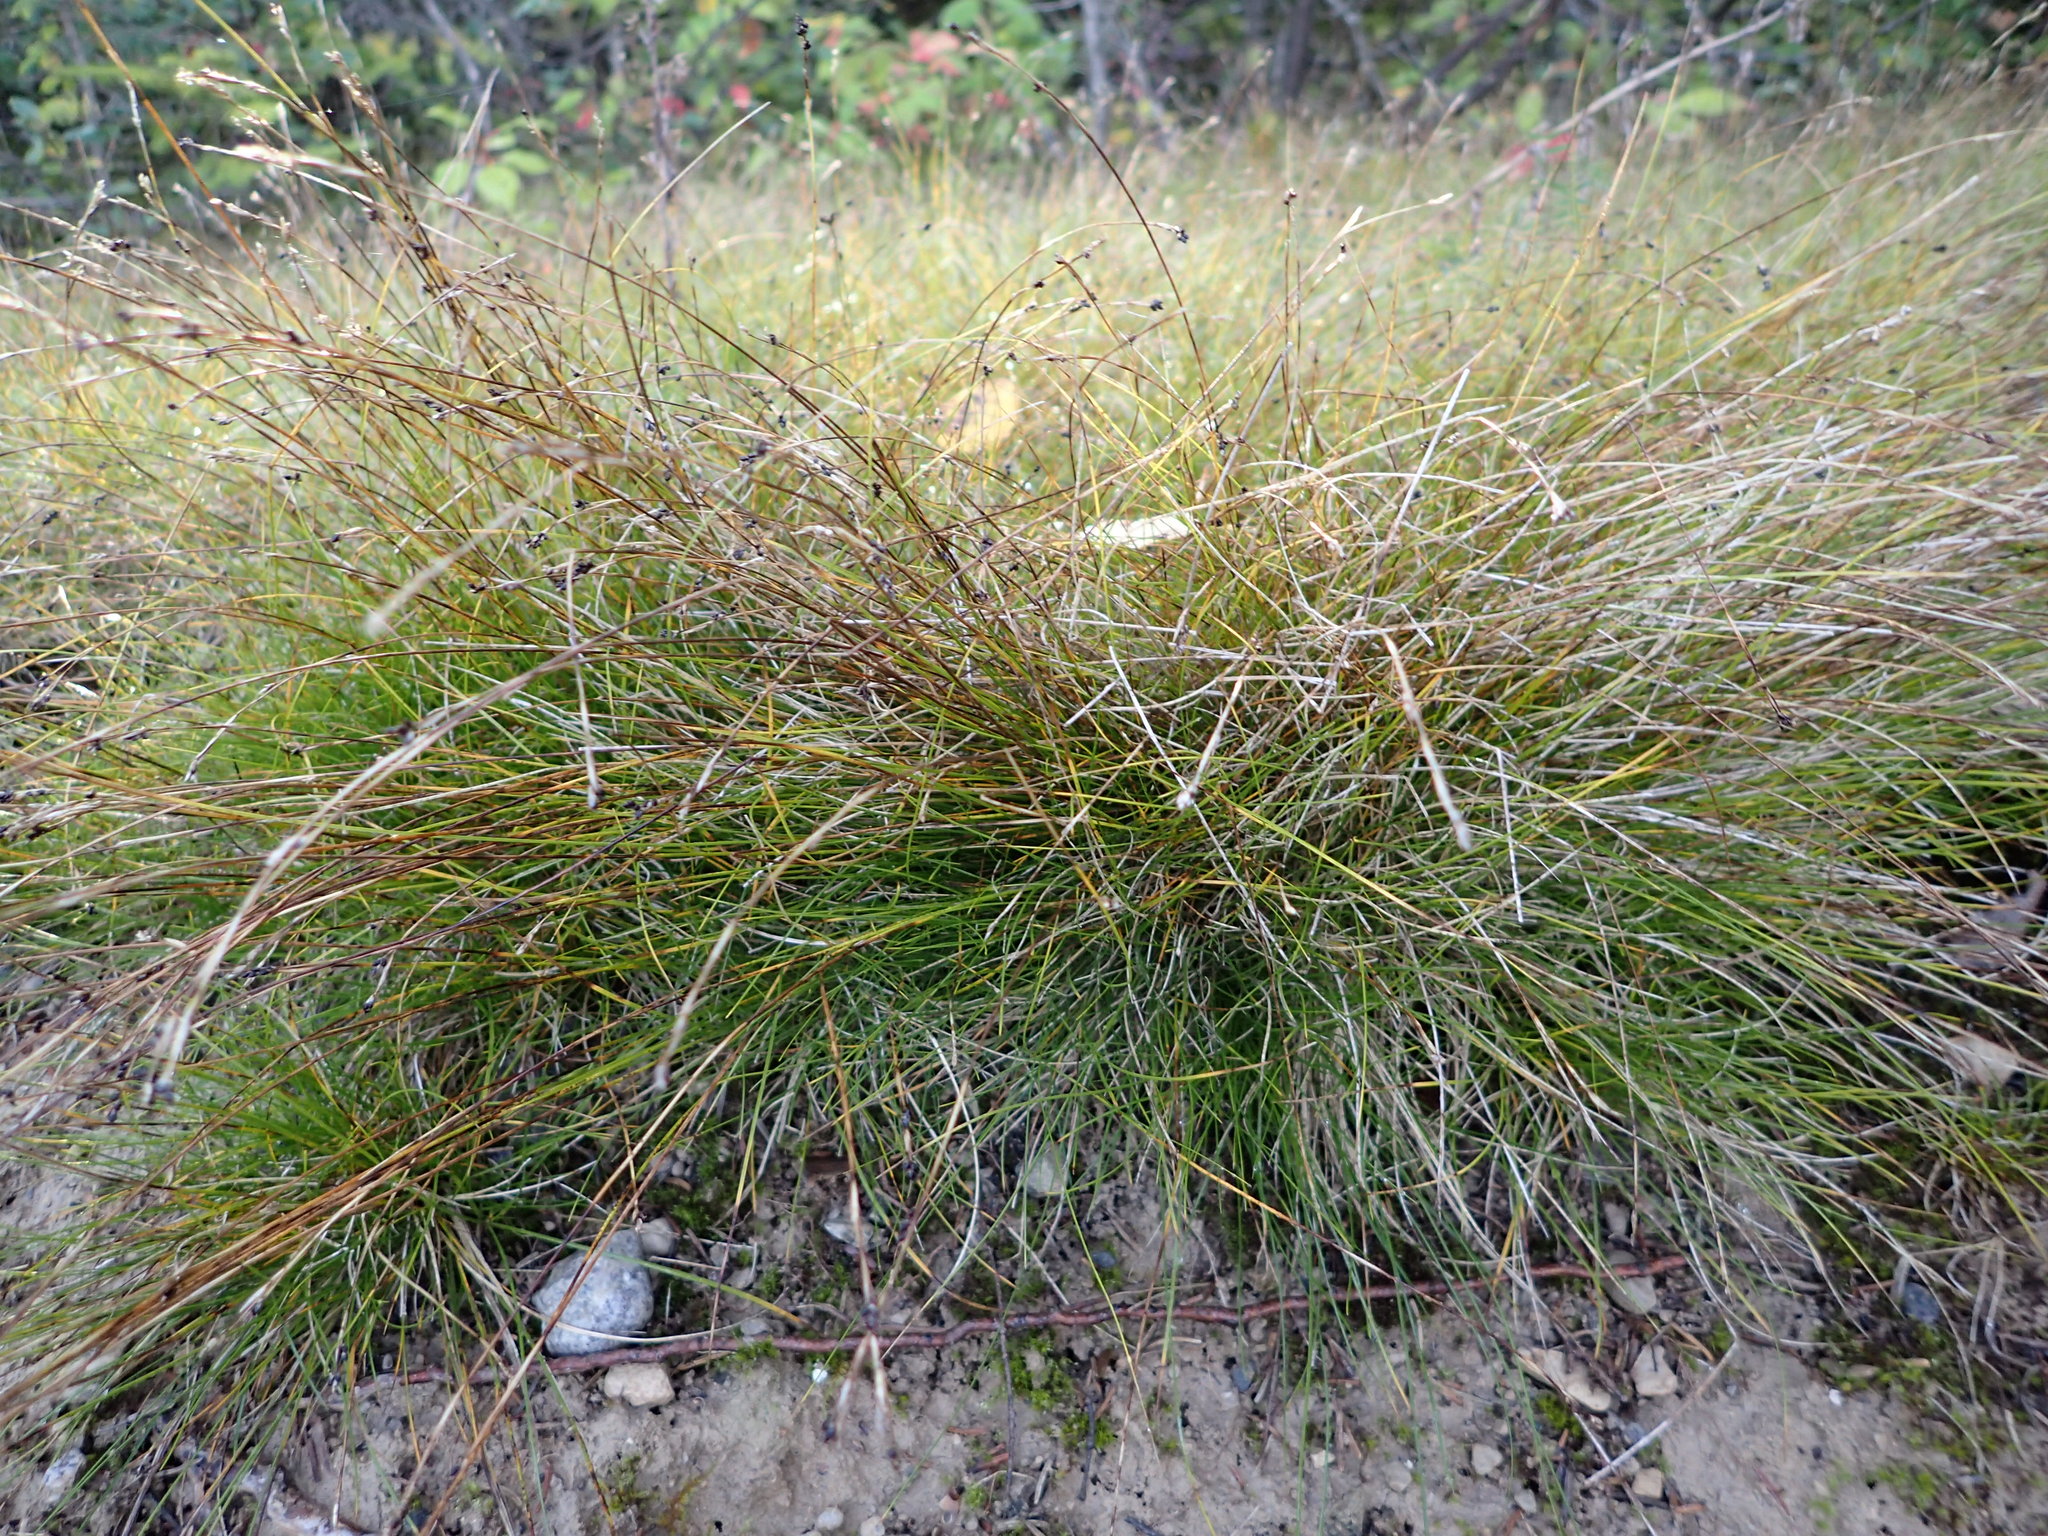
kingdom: Plantae
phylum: Tracheophyta
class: Liliopsida
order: Poales
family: Cyperaceae
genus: Carex
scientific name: Carex eburnea
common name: Bristle-leaved sedge
